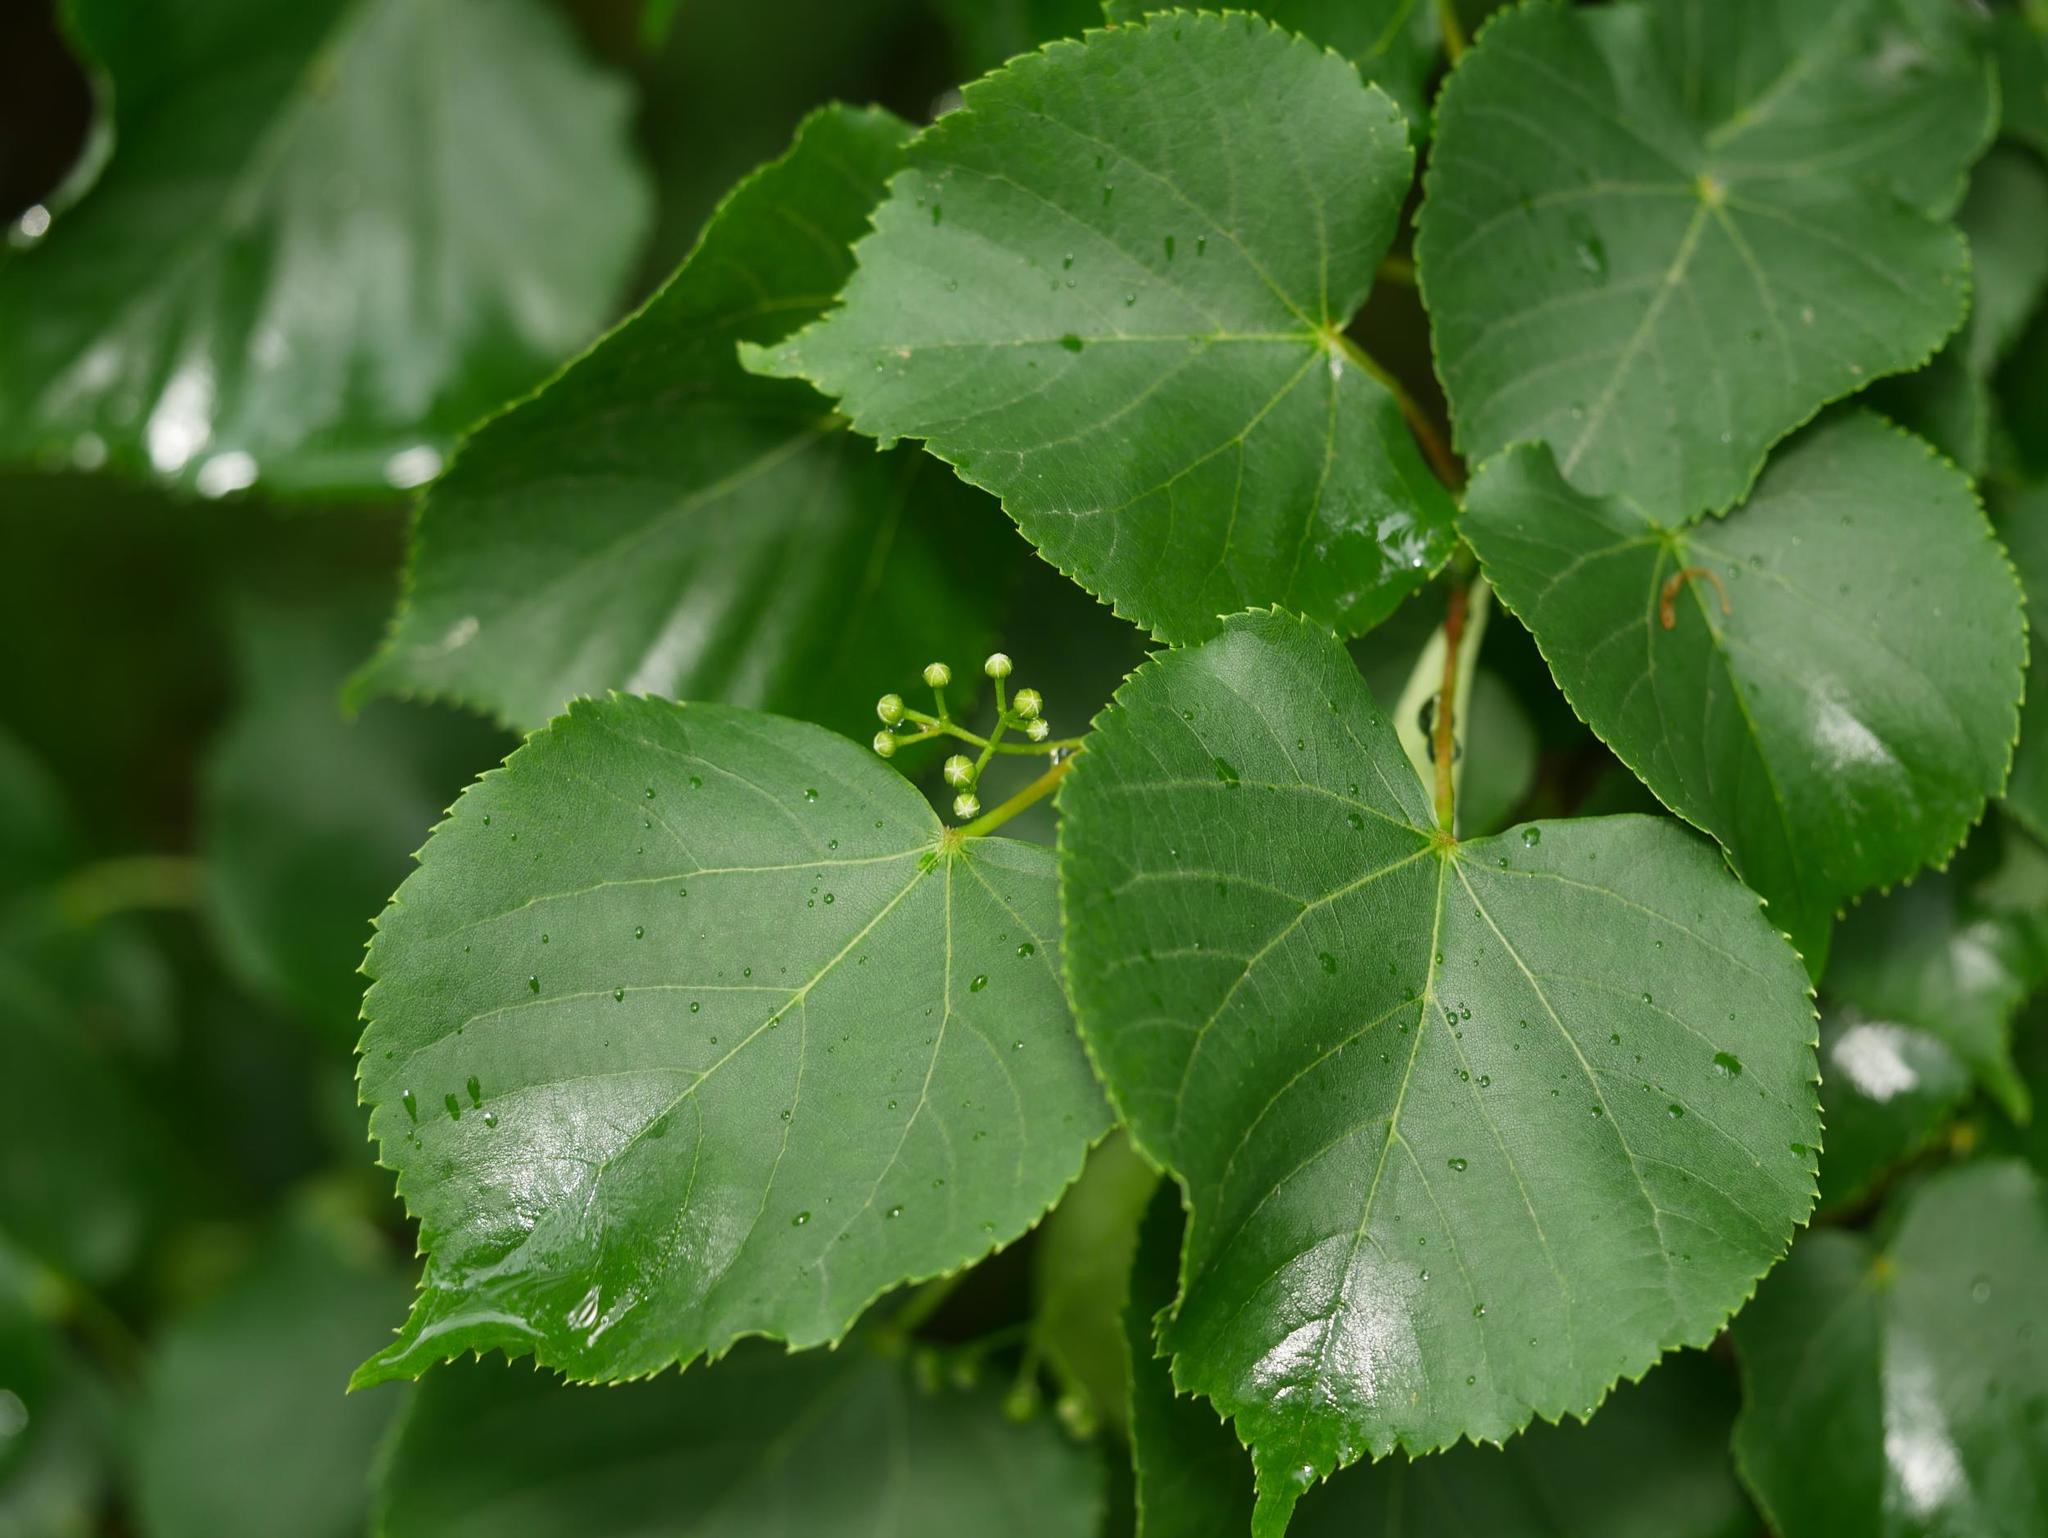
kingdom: Plantae
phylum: Tracheophyta
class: Magnoliopsida
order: Malvales
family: Malvaceae
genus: Tilia
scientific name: Tilia cordata
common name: Small-leaved lime
